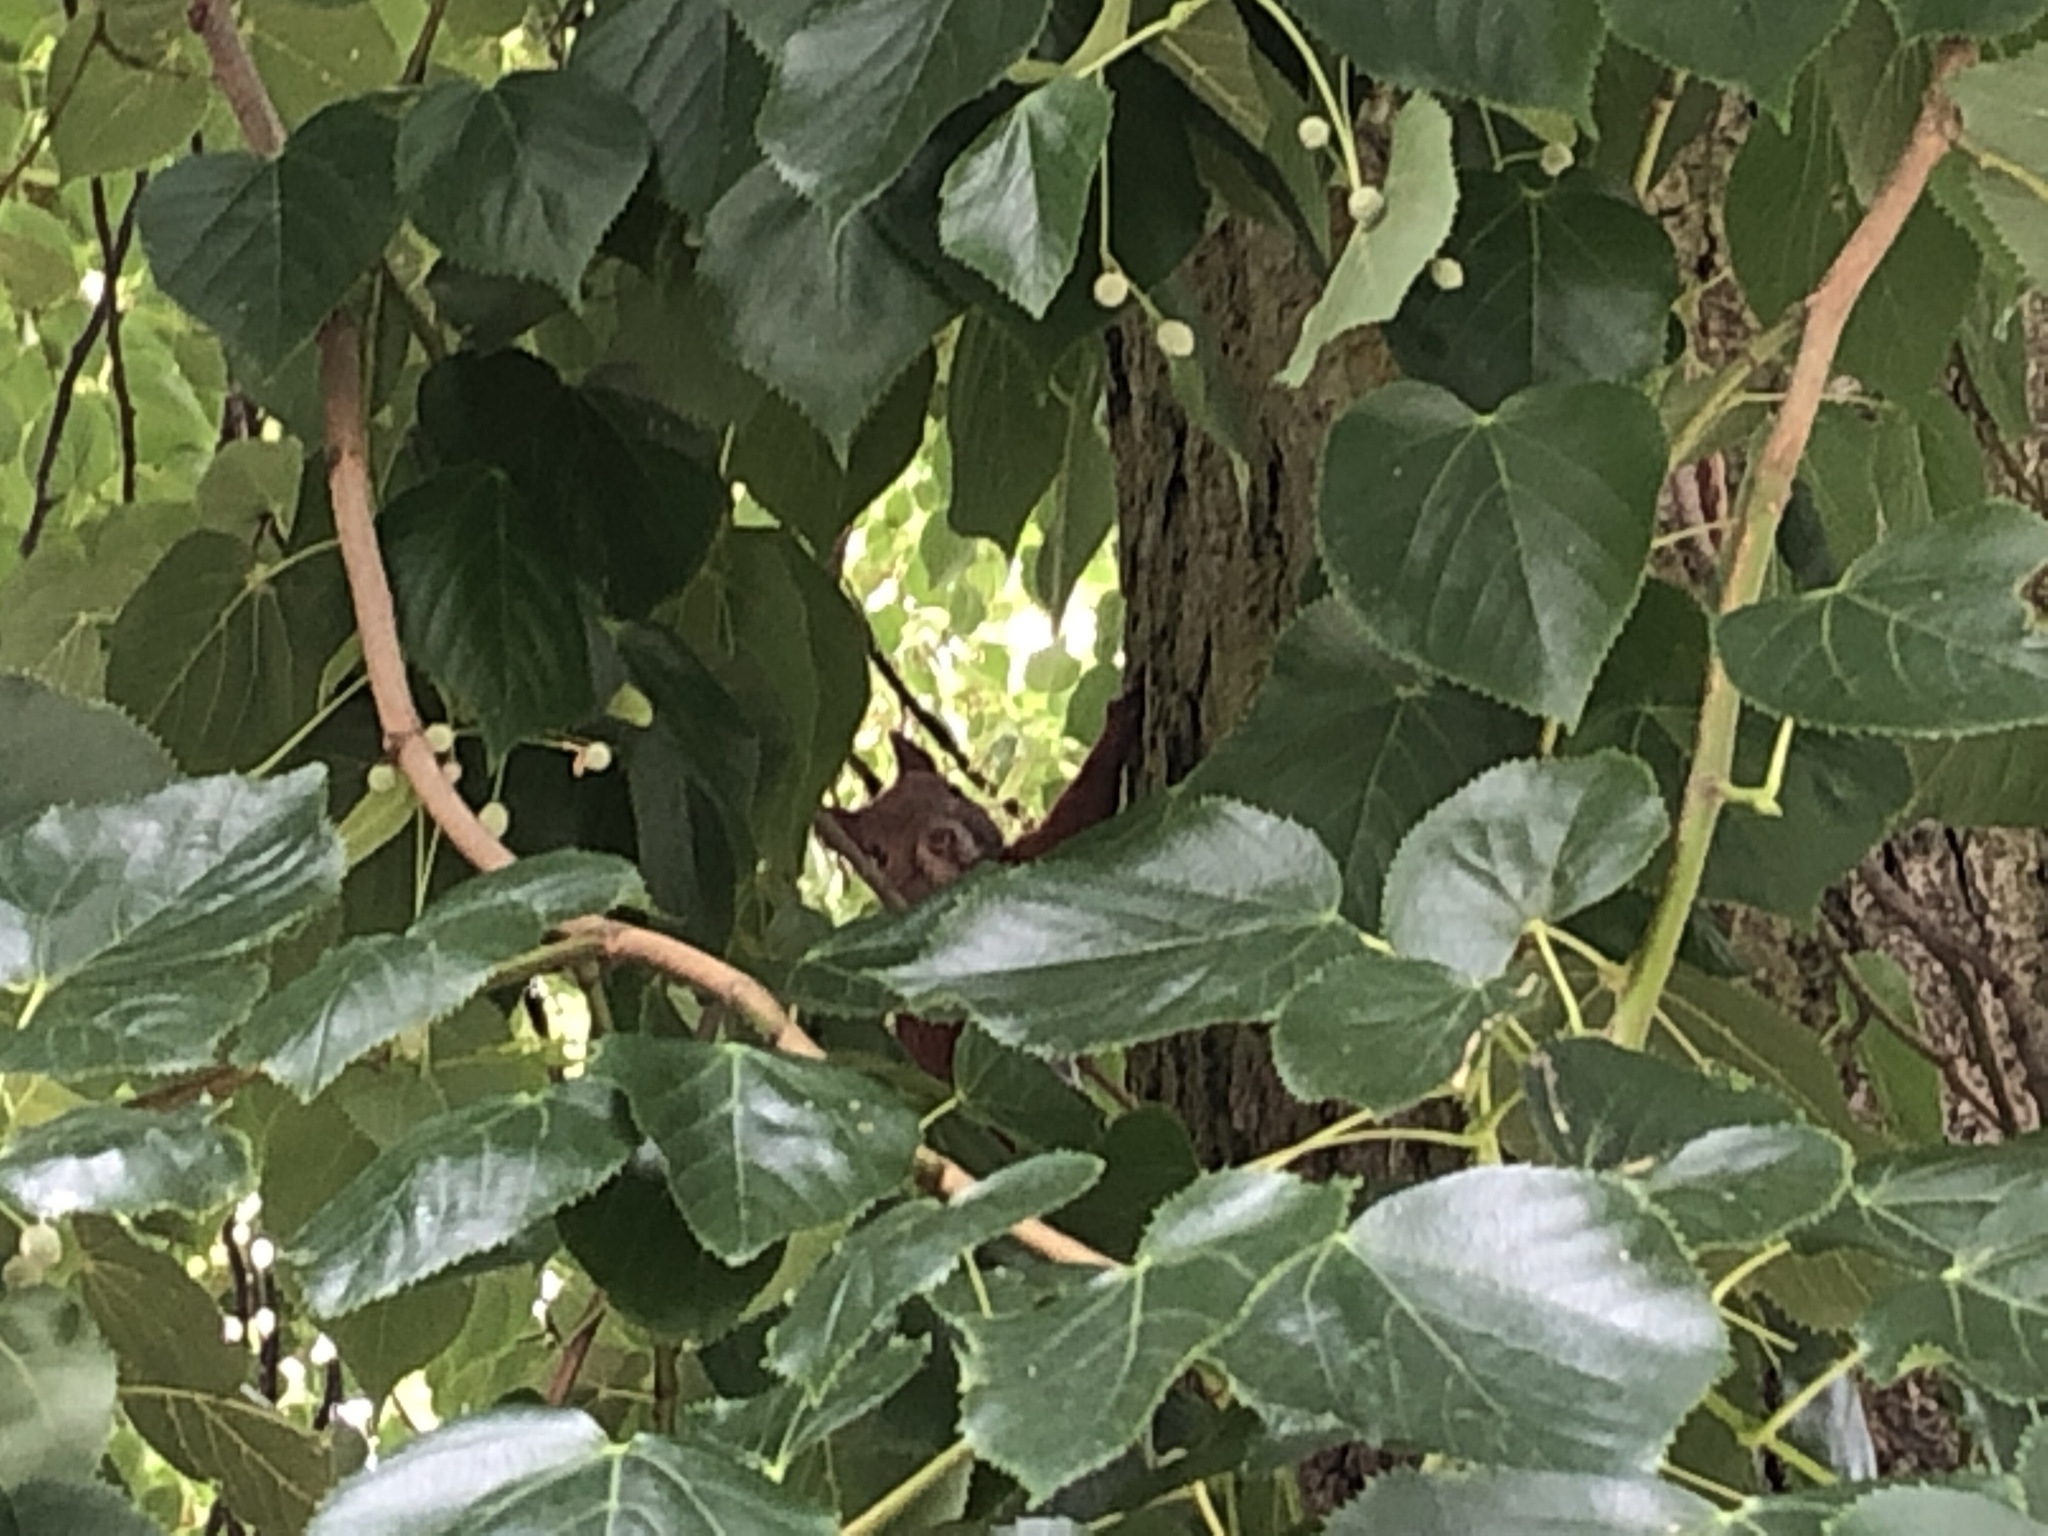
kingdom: Animalia
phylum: Chordata
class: Mammalia
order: Rodentia
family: Sciuridae
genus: Sciurus
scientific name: Sciurus vulgaris
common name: Eurasian red squirrel
